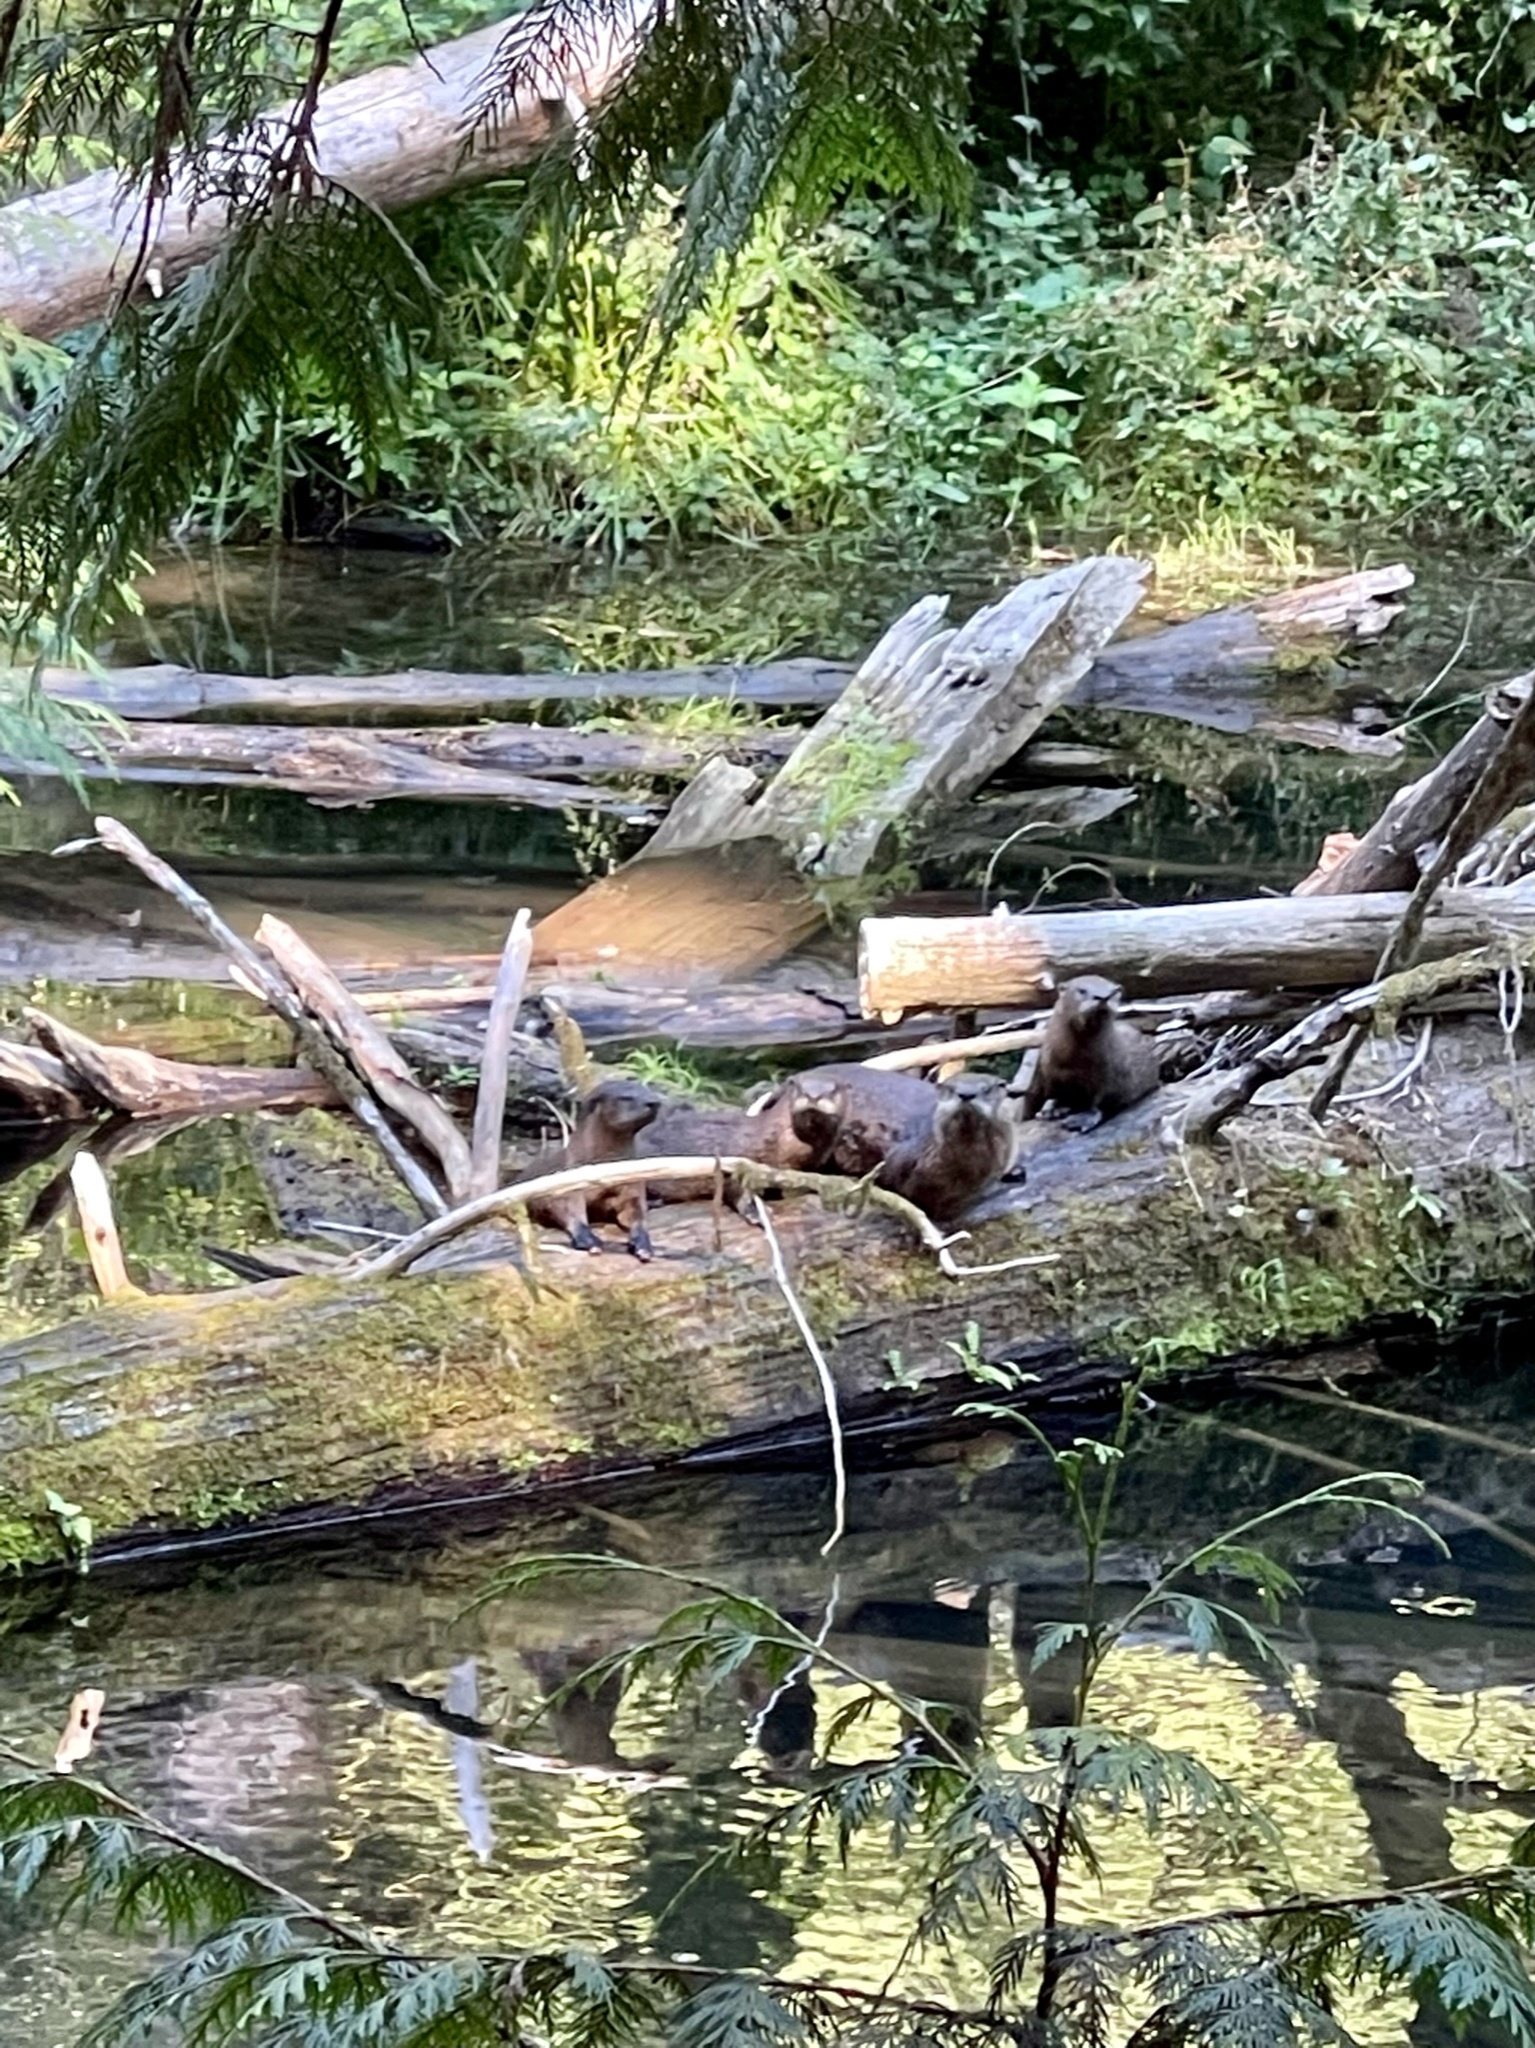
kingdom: Animalia
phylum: Chordata
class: Mammalia
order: Carnivora
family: Mustelidae
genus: Lontra
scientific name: Lontra canadensis
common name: North american river otter
